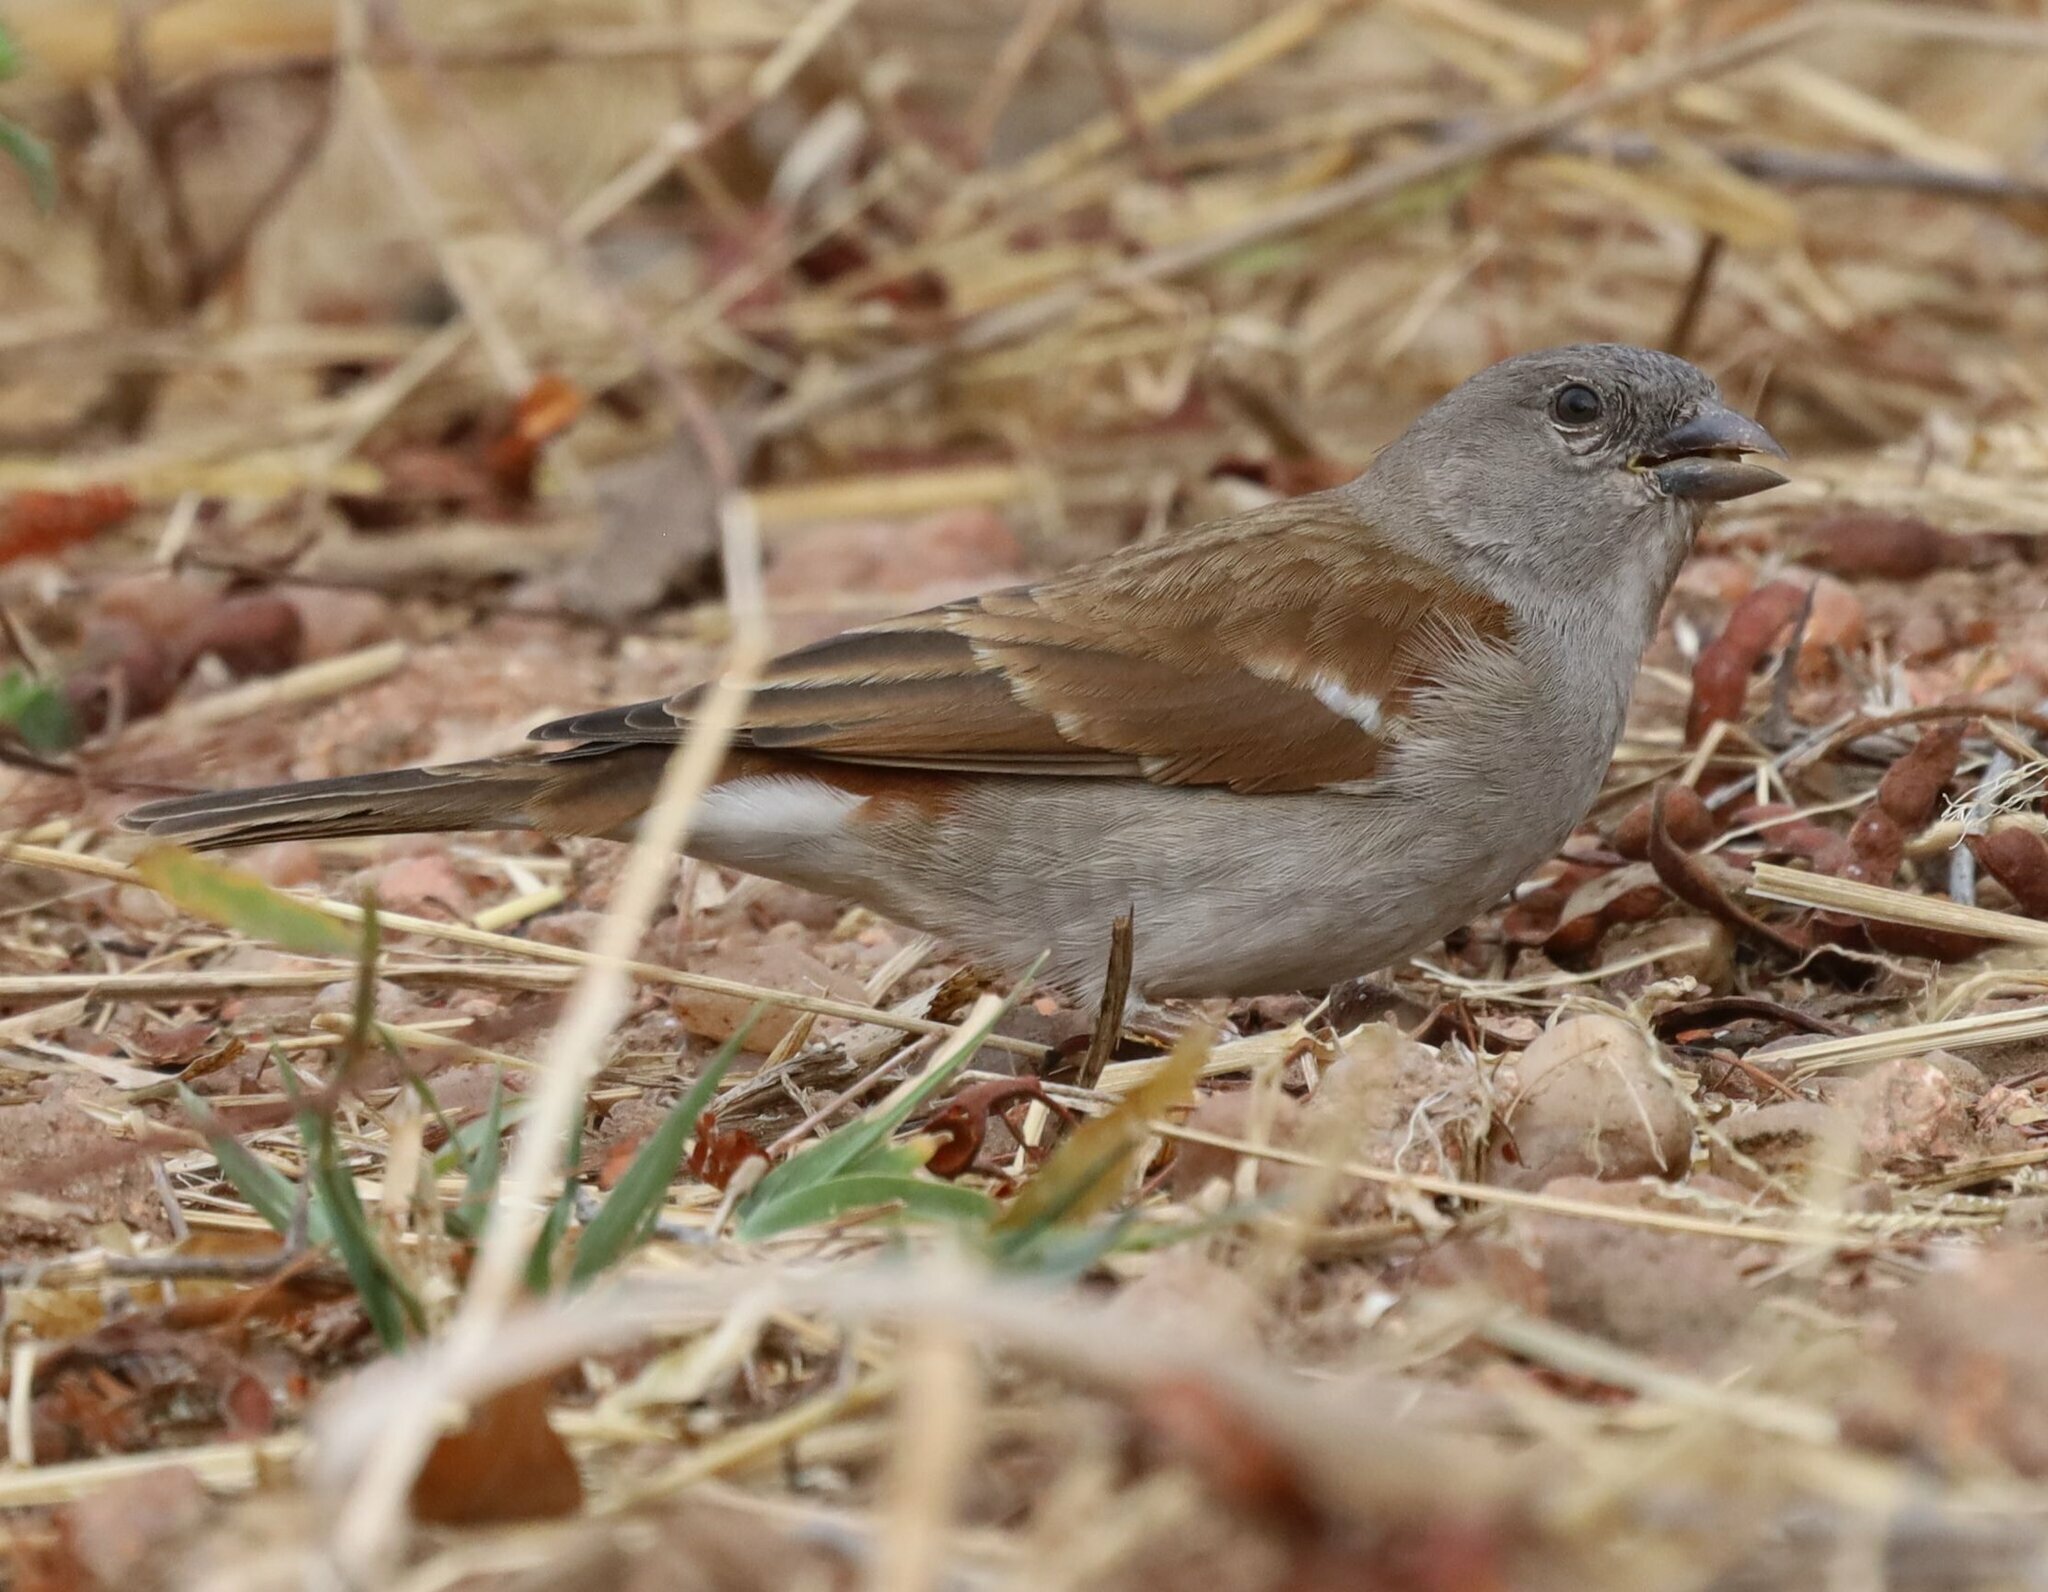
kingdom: Animalia
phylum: Chordata
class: Aves
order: Passeriformes
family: Passeridae
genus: Passer
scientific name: Passer diffusus
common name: Southern grey-headed sparrow
